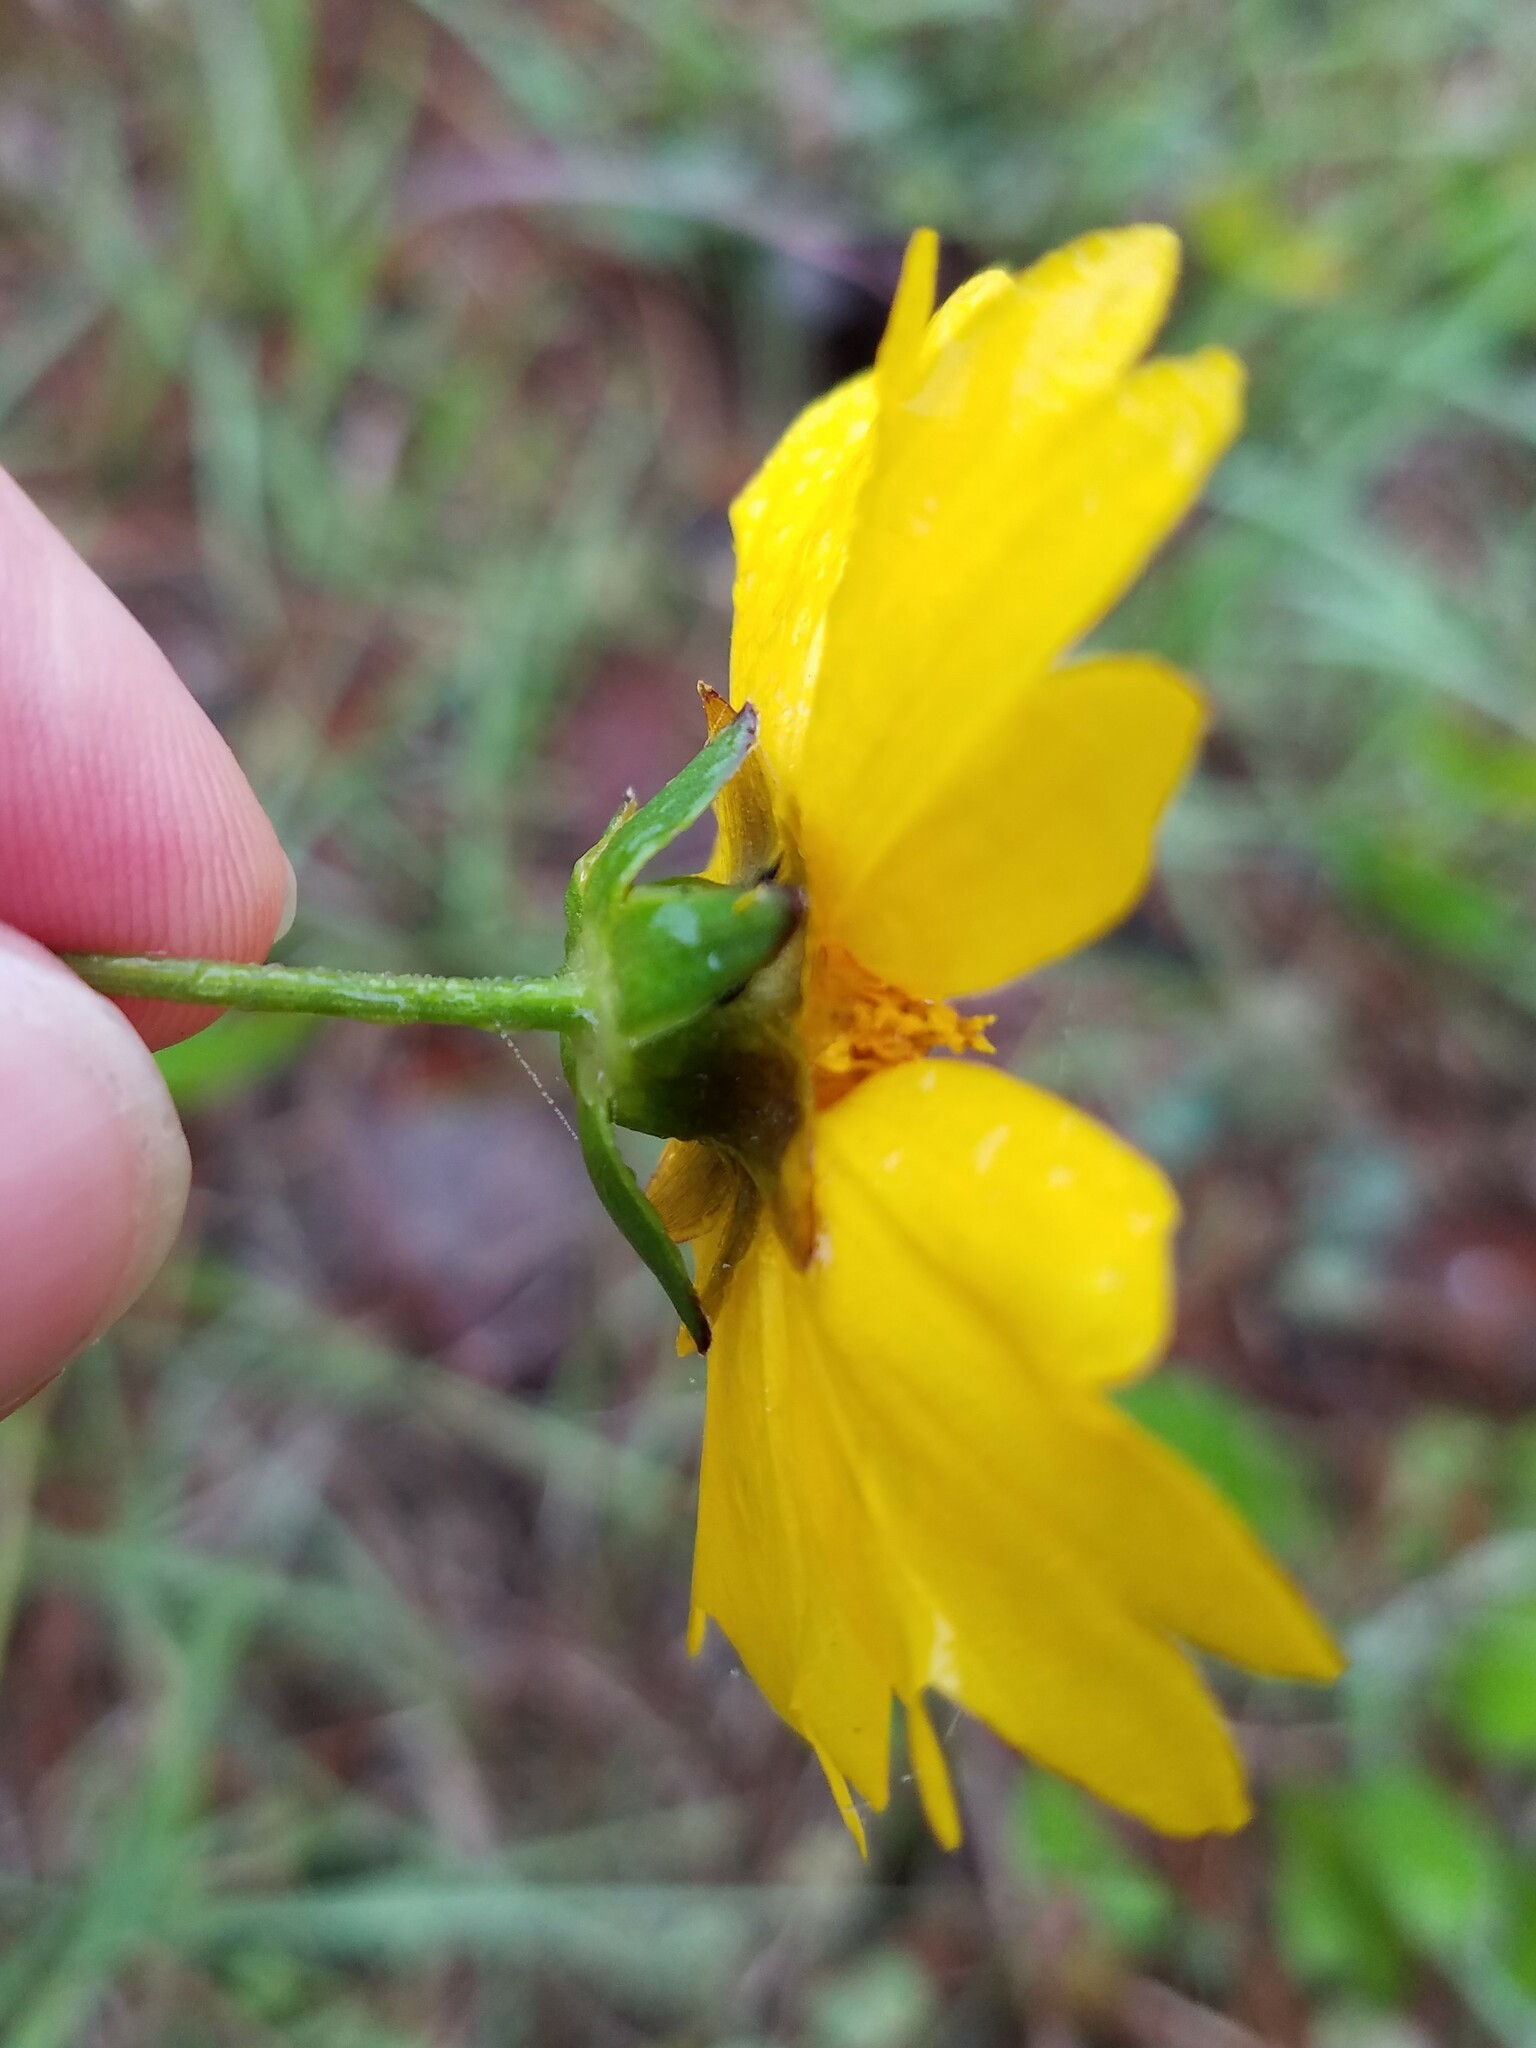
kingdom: Plantae
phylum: Tracheophyta
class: Magnoliopsida
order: Asterales
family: Asteraceae
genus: Coreopsis
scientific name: Coreopsis lanceolata
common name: Garden coreopsis
